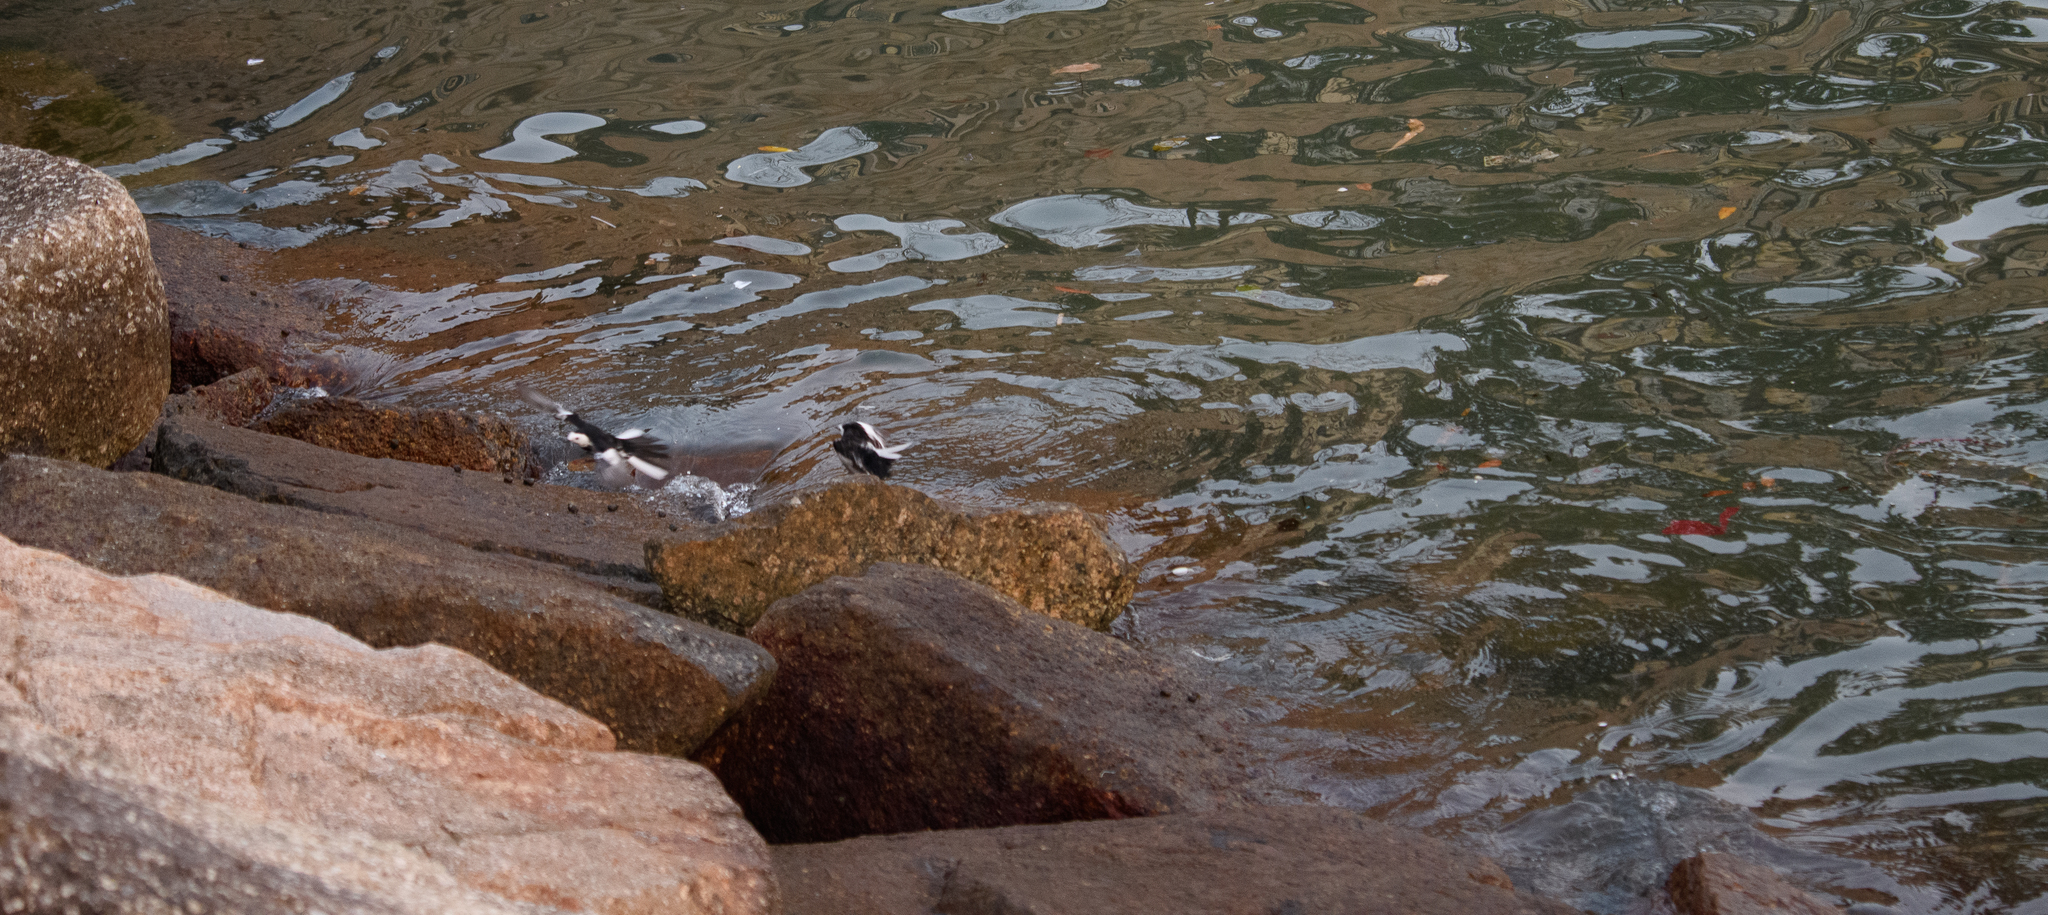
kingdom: Animalia
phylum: Chordata
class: Aves
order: Passeriformes
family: Motacillidae
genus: Motacilla
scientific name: Motacilla alba
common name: White wagtail
